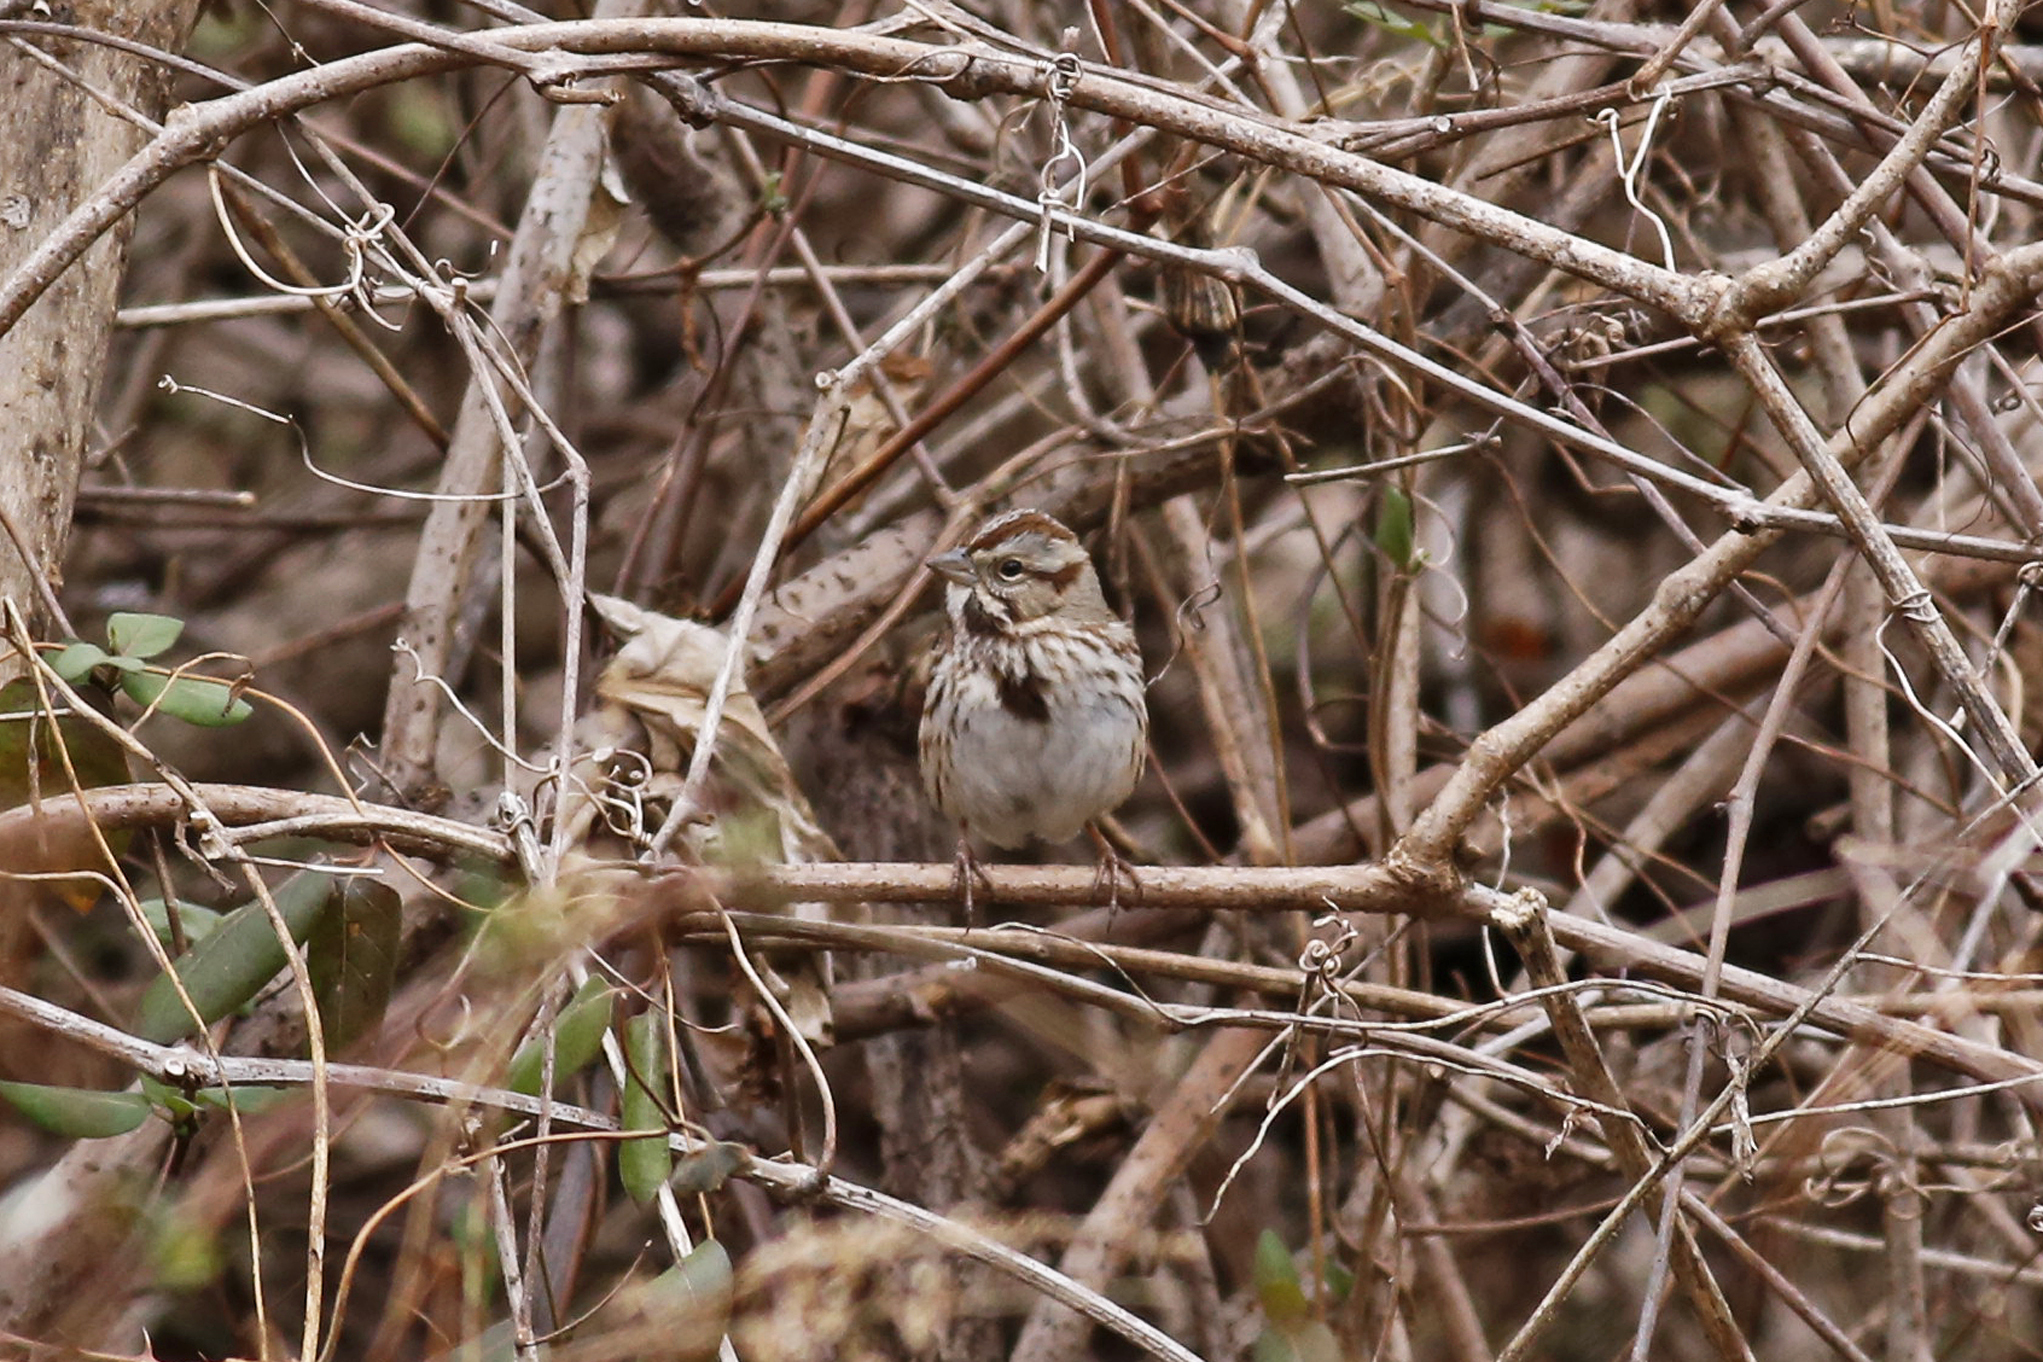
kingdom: Animalia
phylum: Chordata
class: Aves
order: Passeriformes
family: Passerellidae
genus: Melospiza
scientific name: Melospiza melodia
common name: Song sparrow
